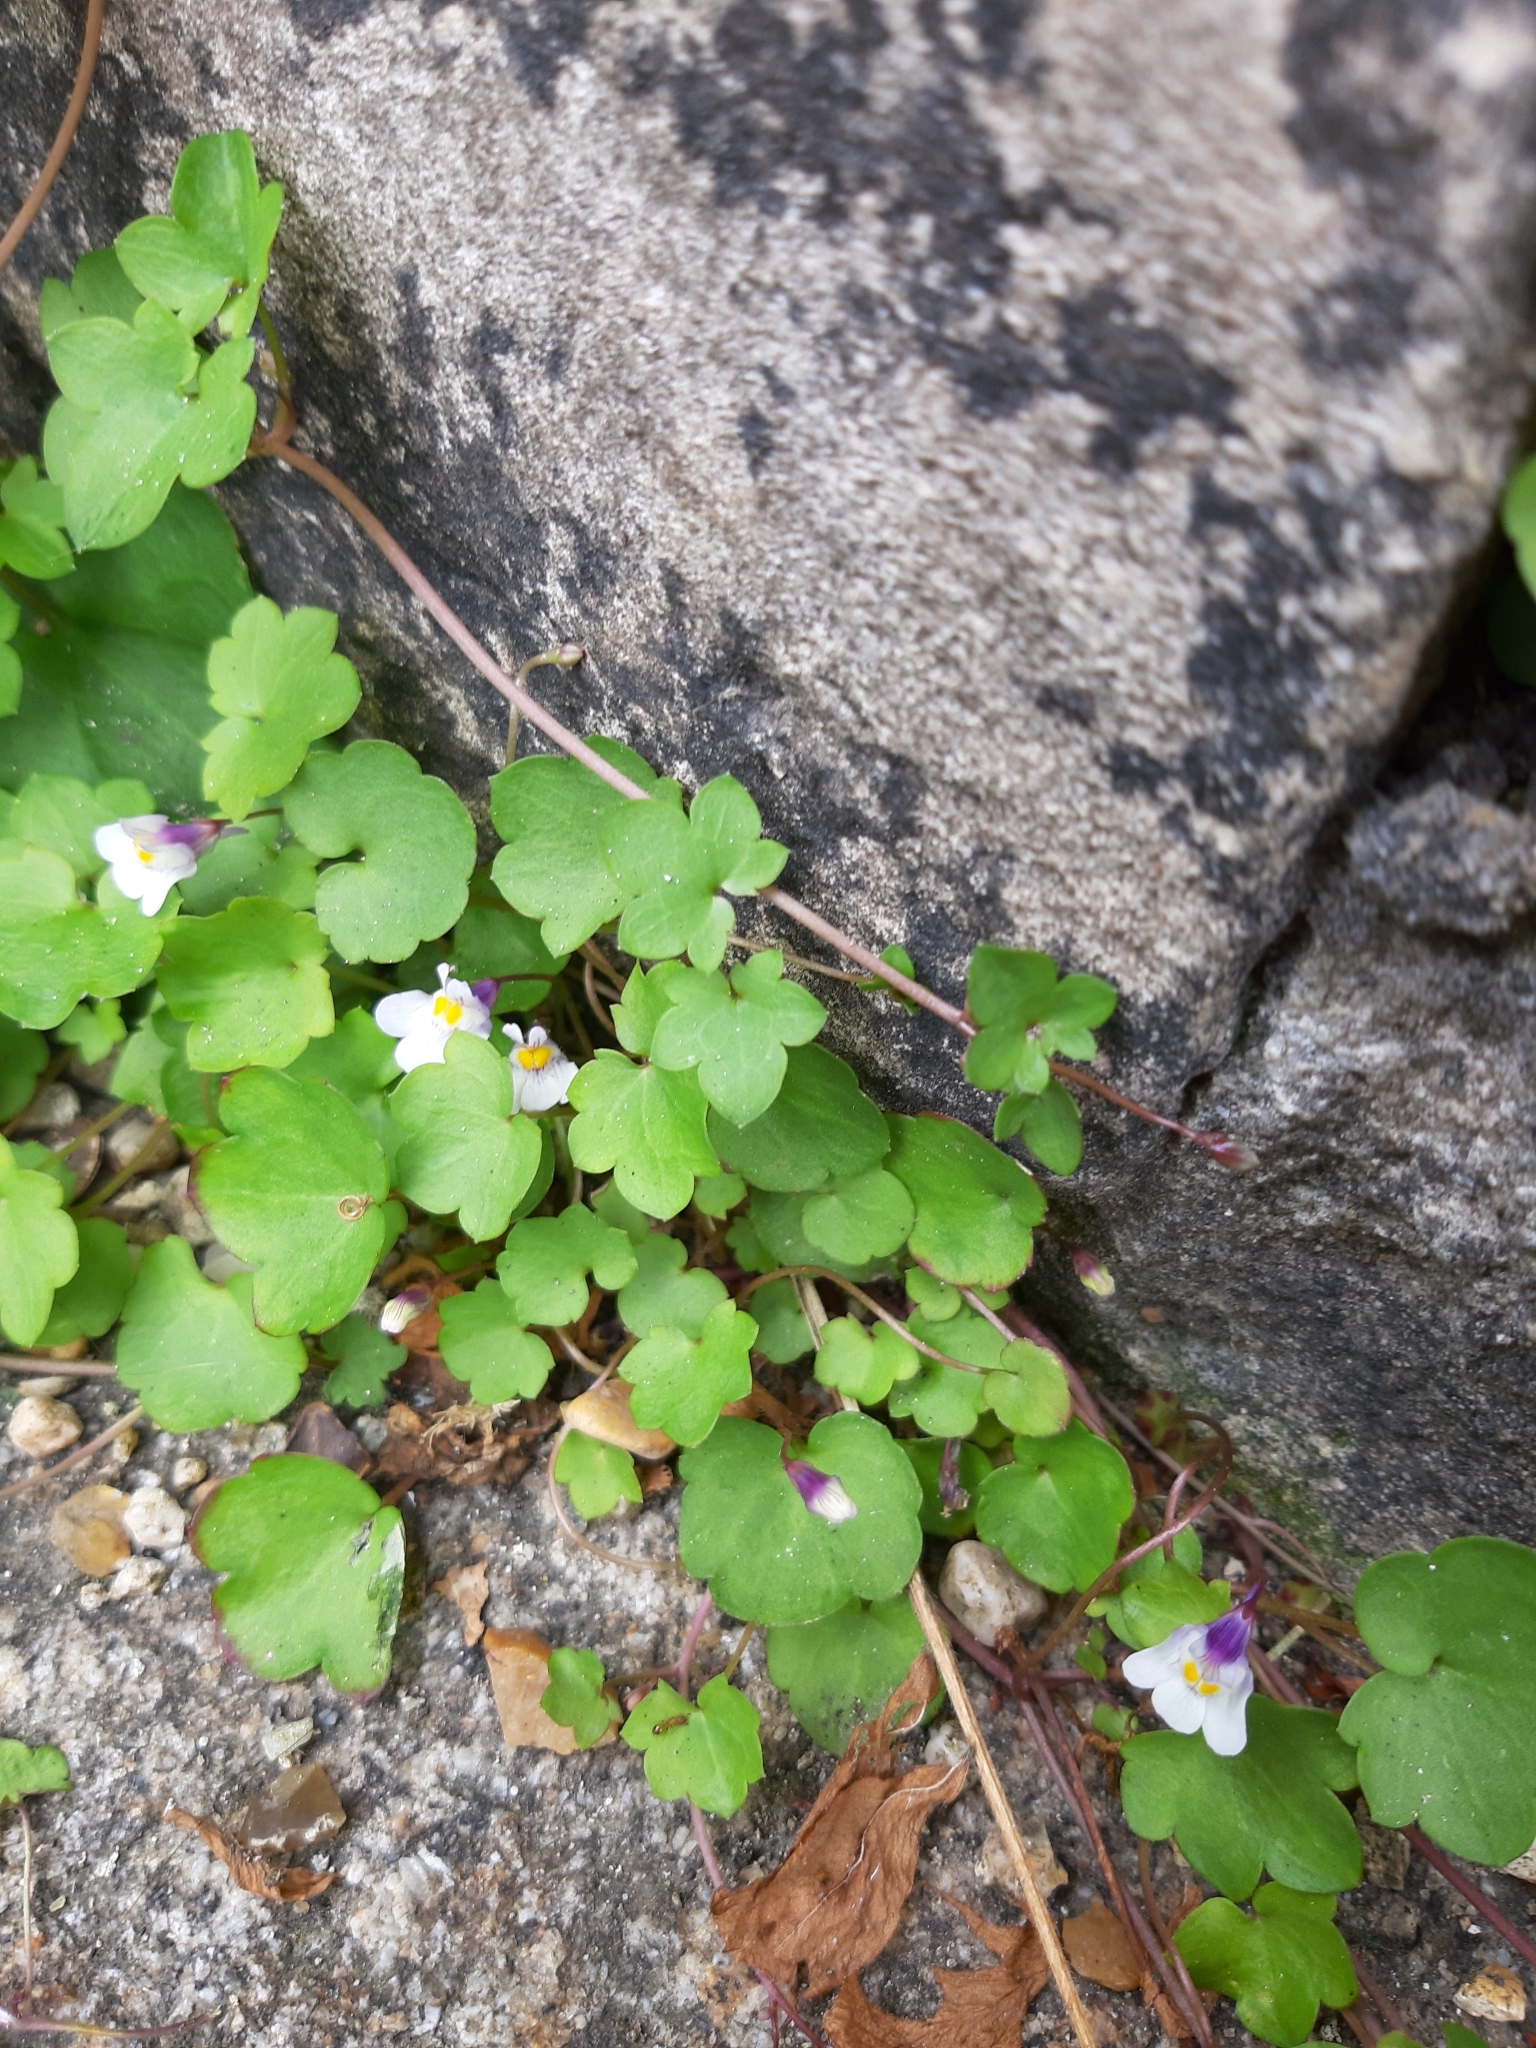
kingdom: Plantae
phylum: Tracheophyta
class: Magnoliopsida
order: Lamiales
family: Plantaginaceae
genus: Cymbalaria
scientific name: Cymbalaria muralis
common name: Ivy-leaved toadflax
